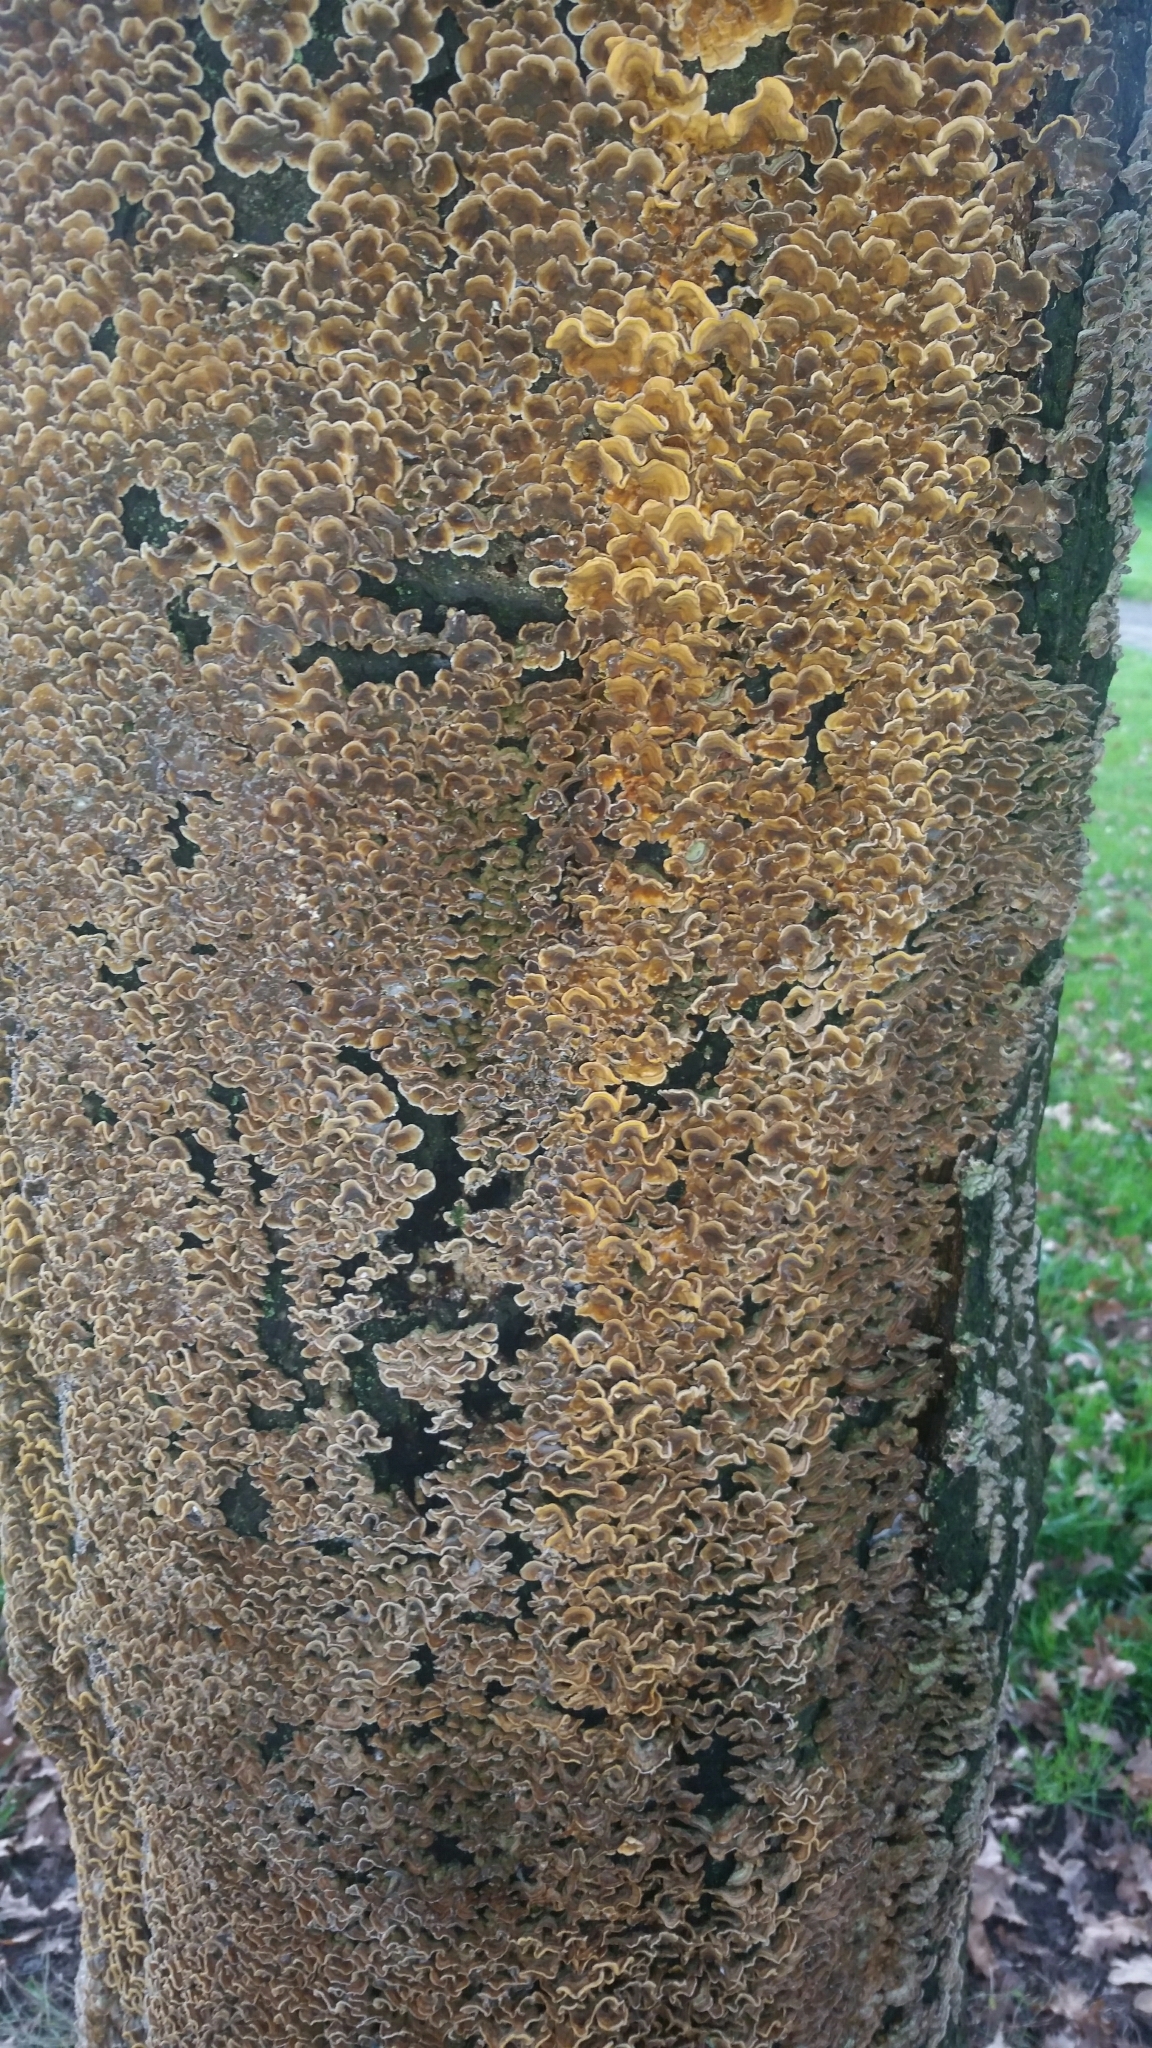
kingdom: Fungi
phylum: Basidiomycota
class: Agaricomycetes
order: Russulales
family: Stereaceae
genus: Stereum
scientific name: Stereum hirsutum
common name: Hairy curtain crust
